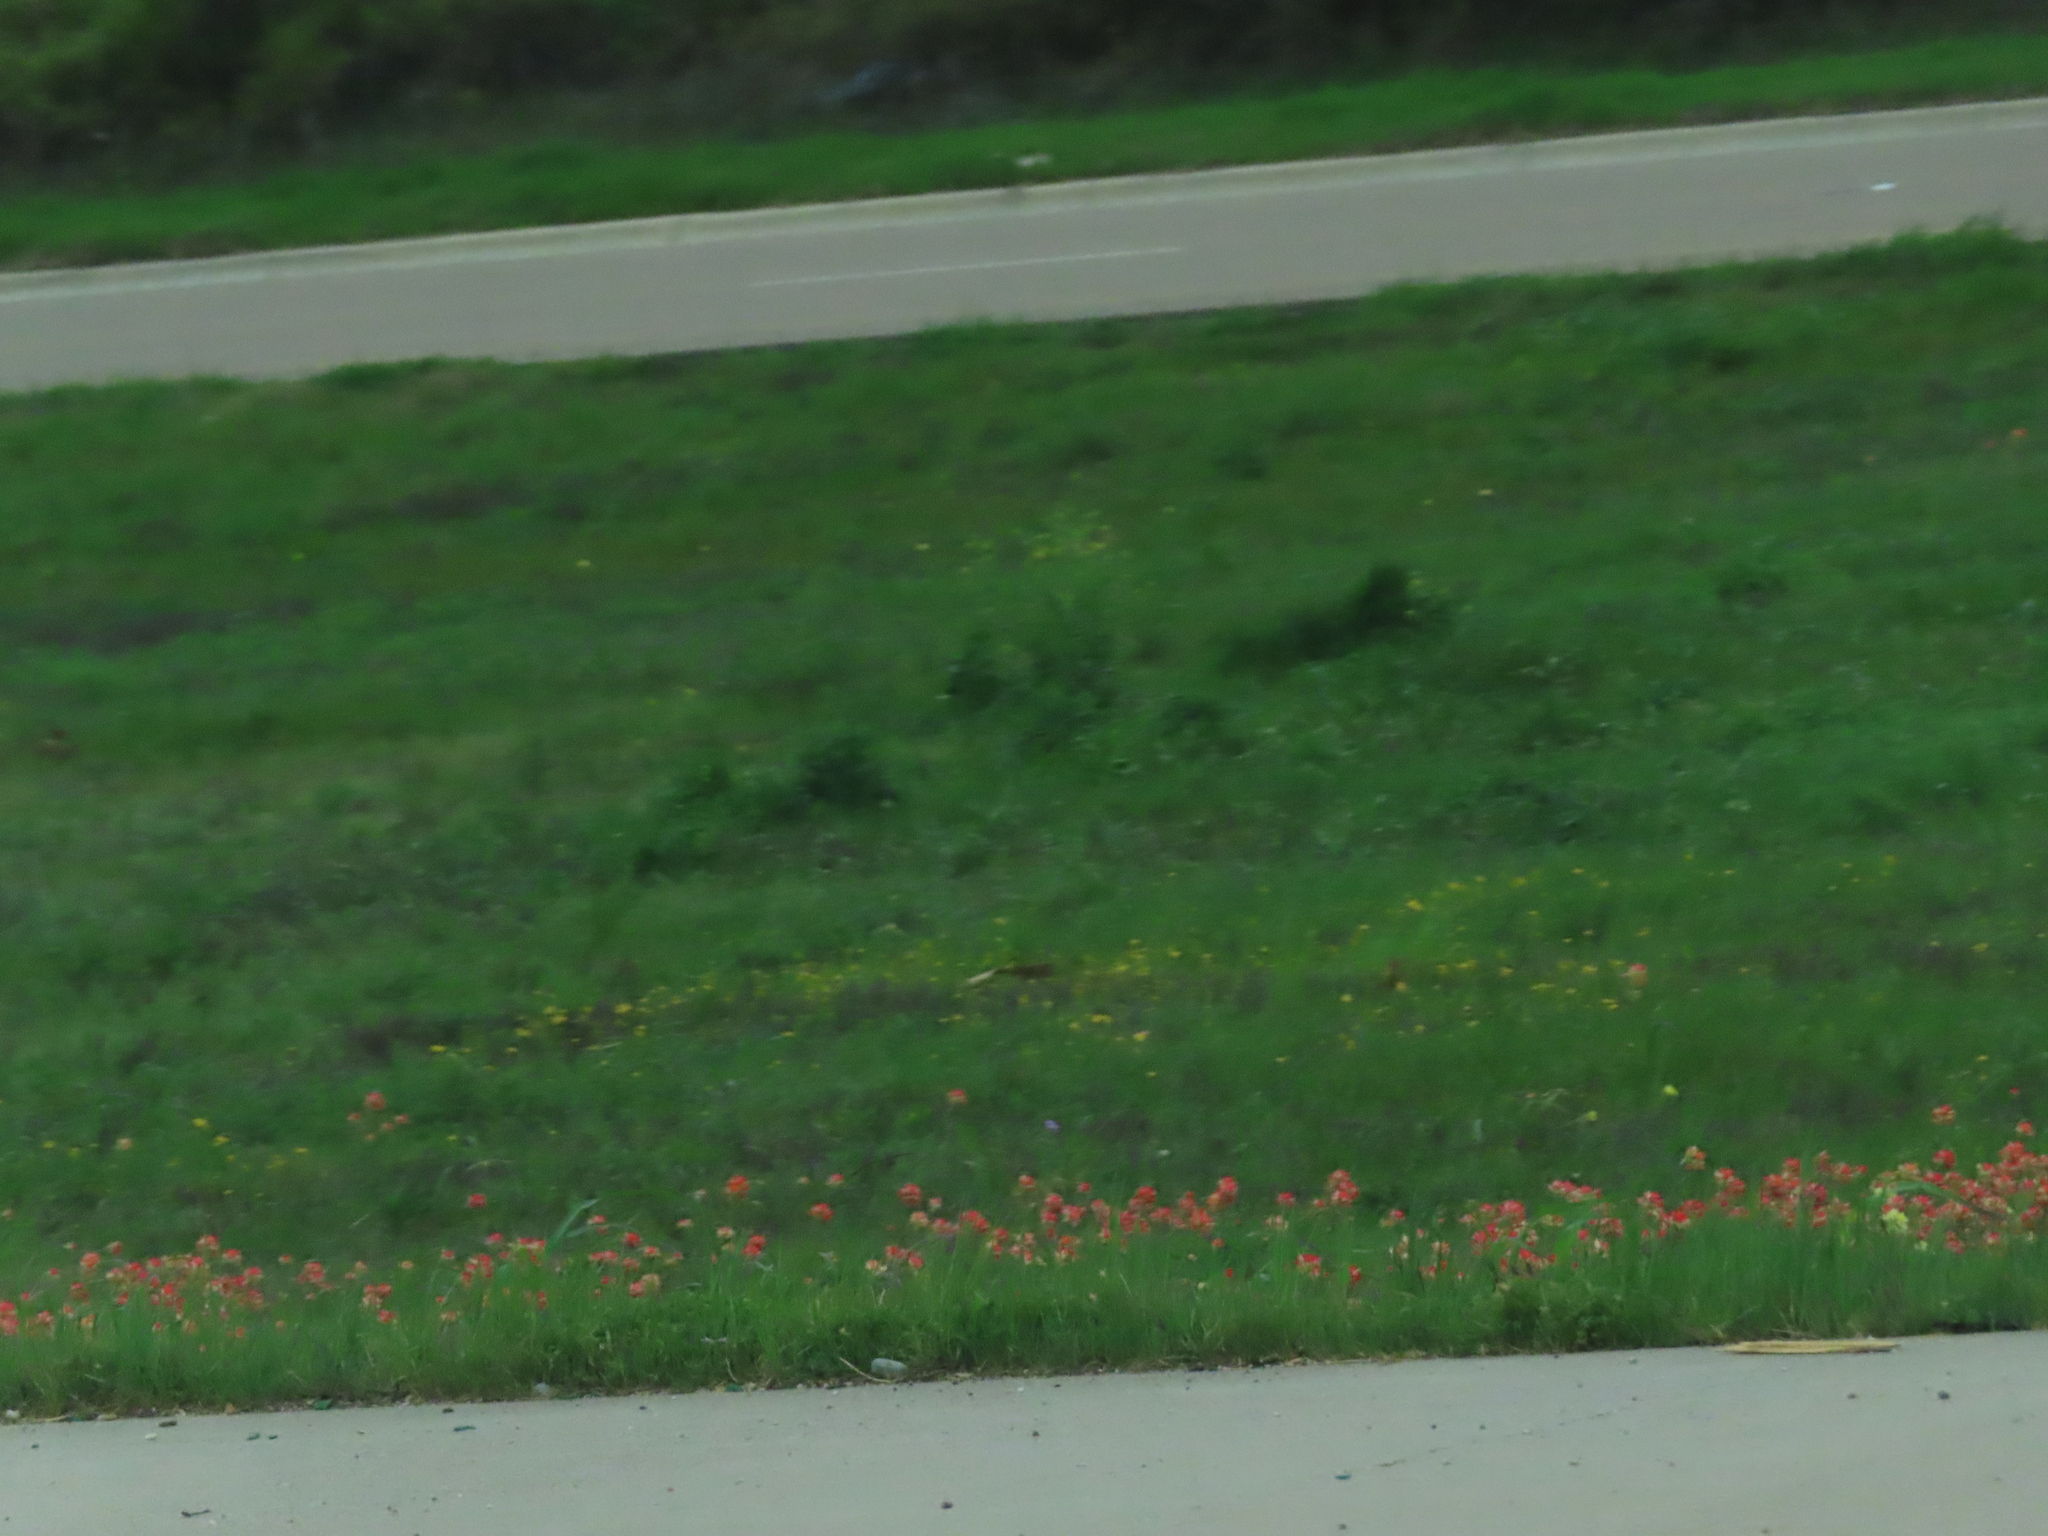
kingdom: Plantae
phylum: Tracheophyta
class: Magnoliopsida
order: Lamiales
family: Orobanchaceae
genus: Castilleja
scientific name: Castilleja indivisa
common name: Texas paintbrush
